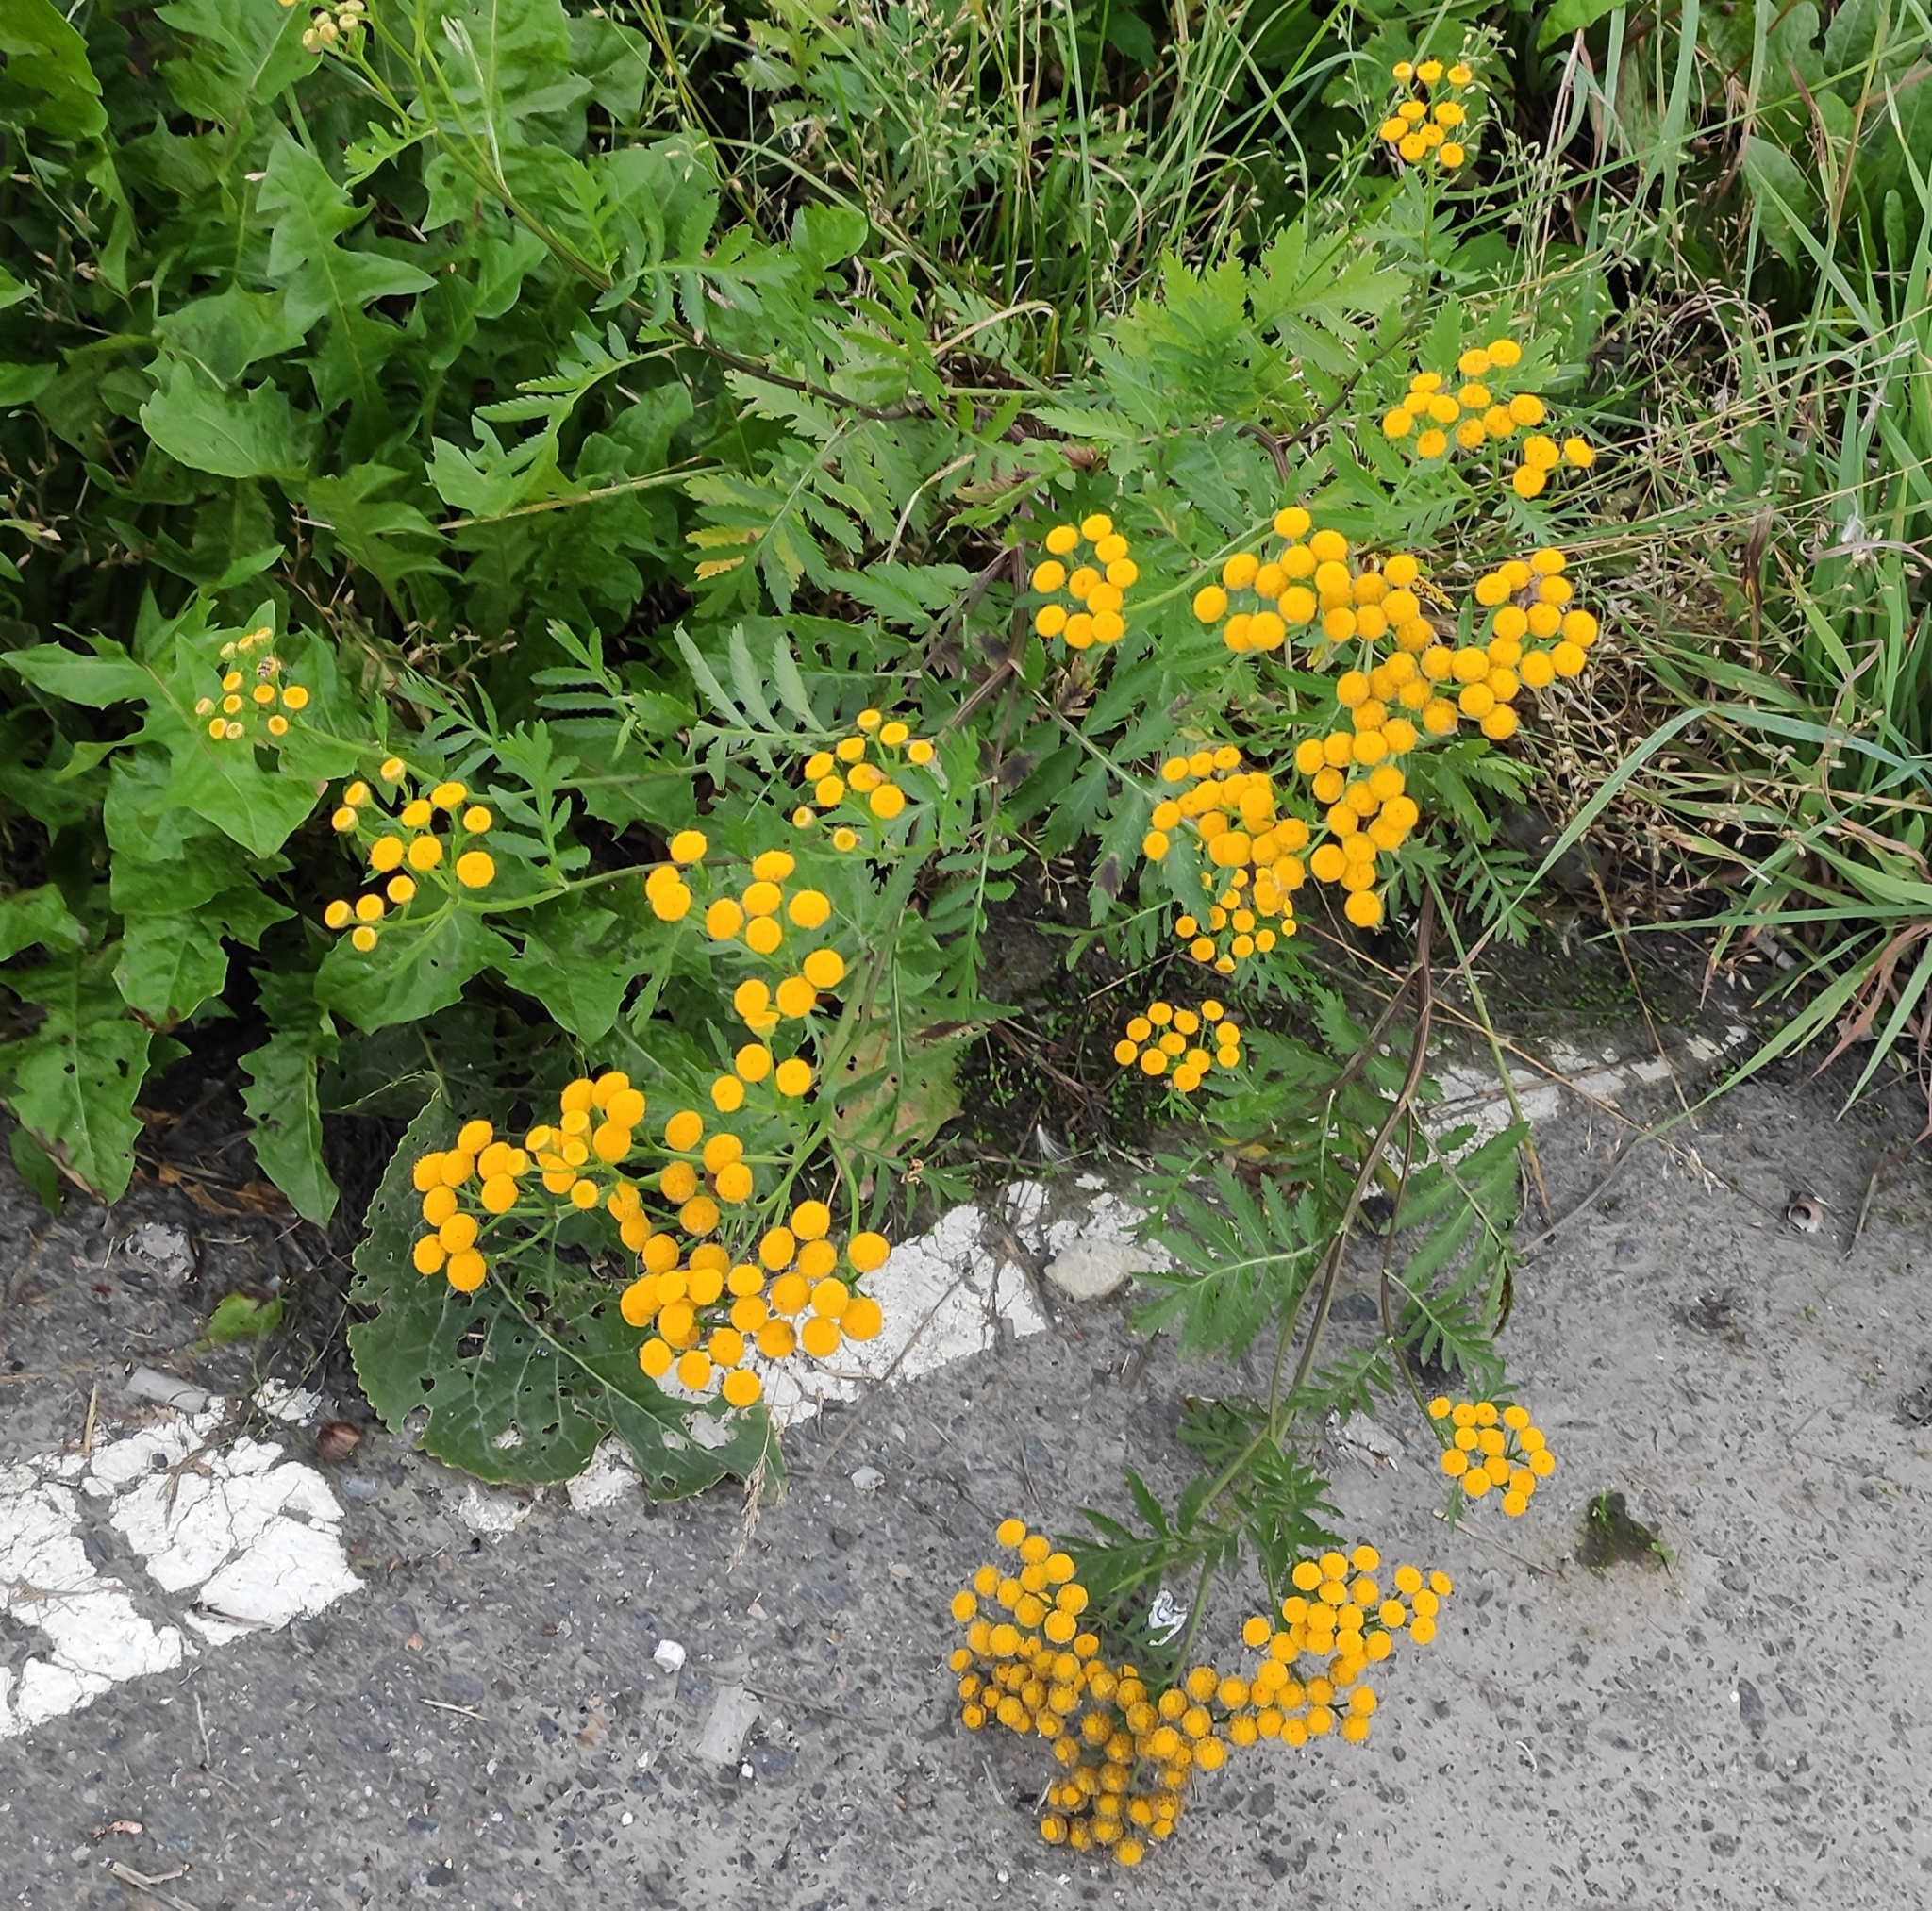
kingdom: Plantae
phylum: Tracheophyta
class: Magnoliopsida
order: Asterales
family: Asteraceae
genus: Tanacetum
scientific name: Tanacetum vulgare
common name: Common tansy
